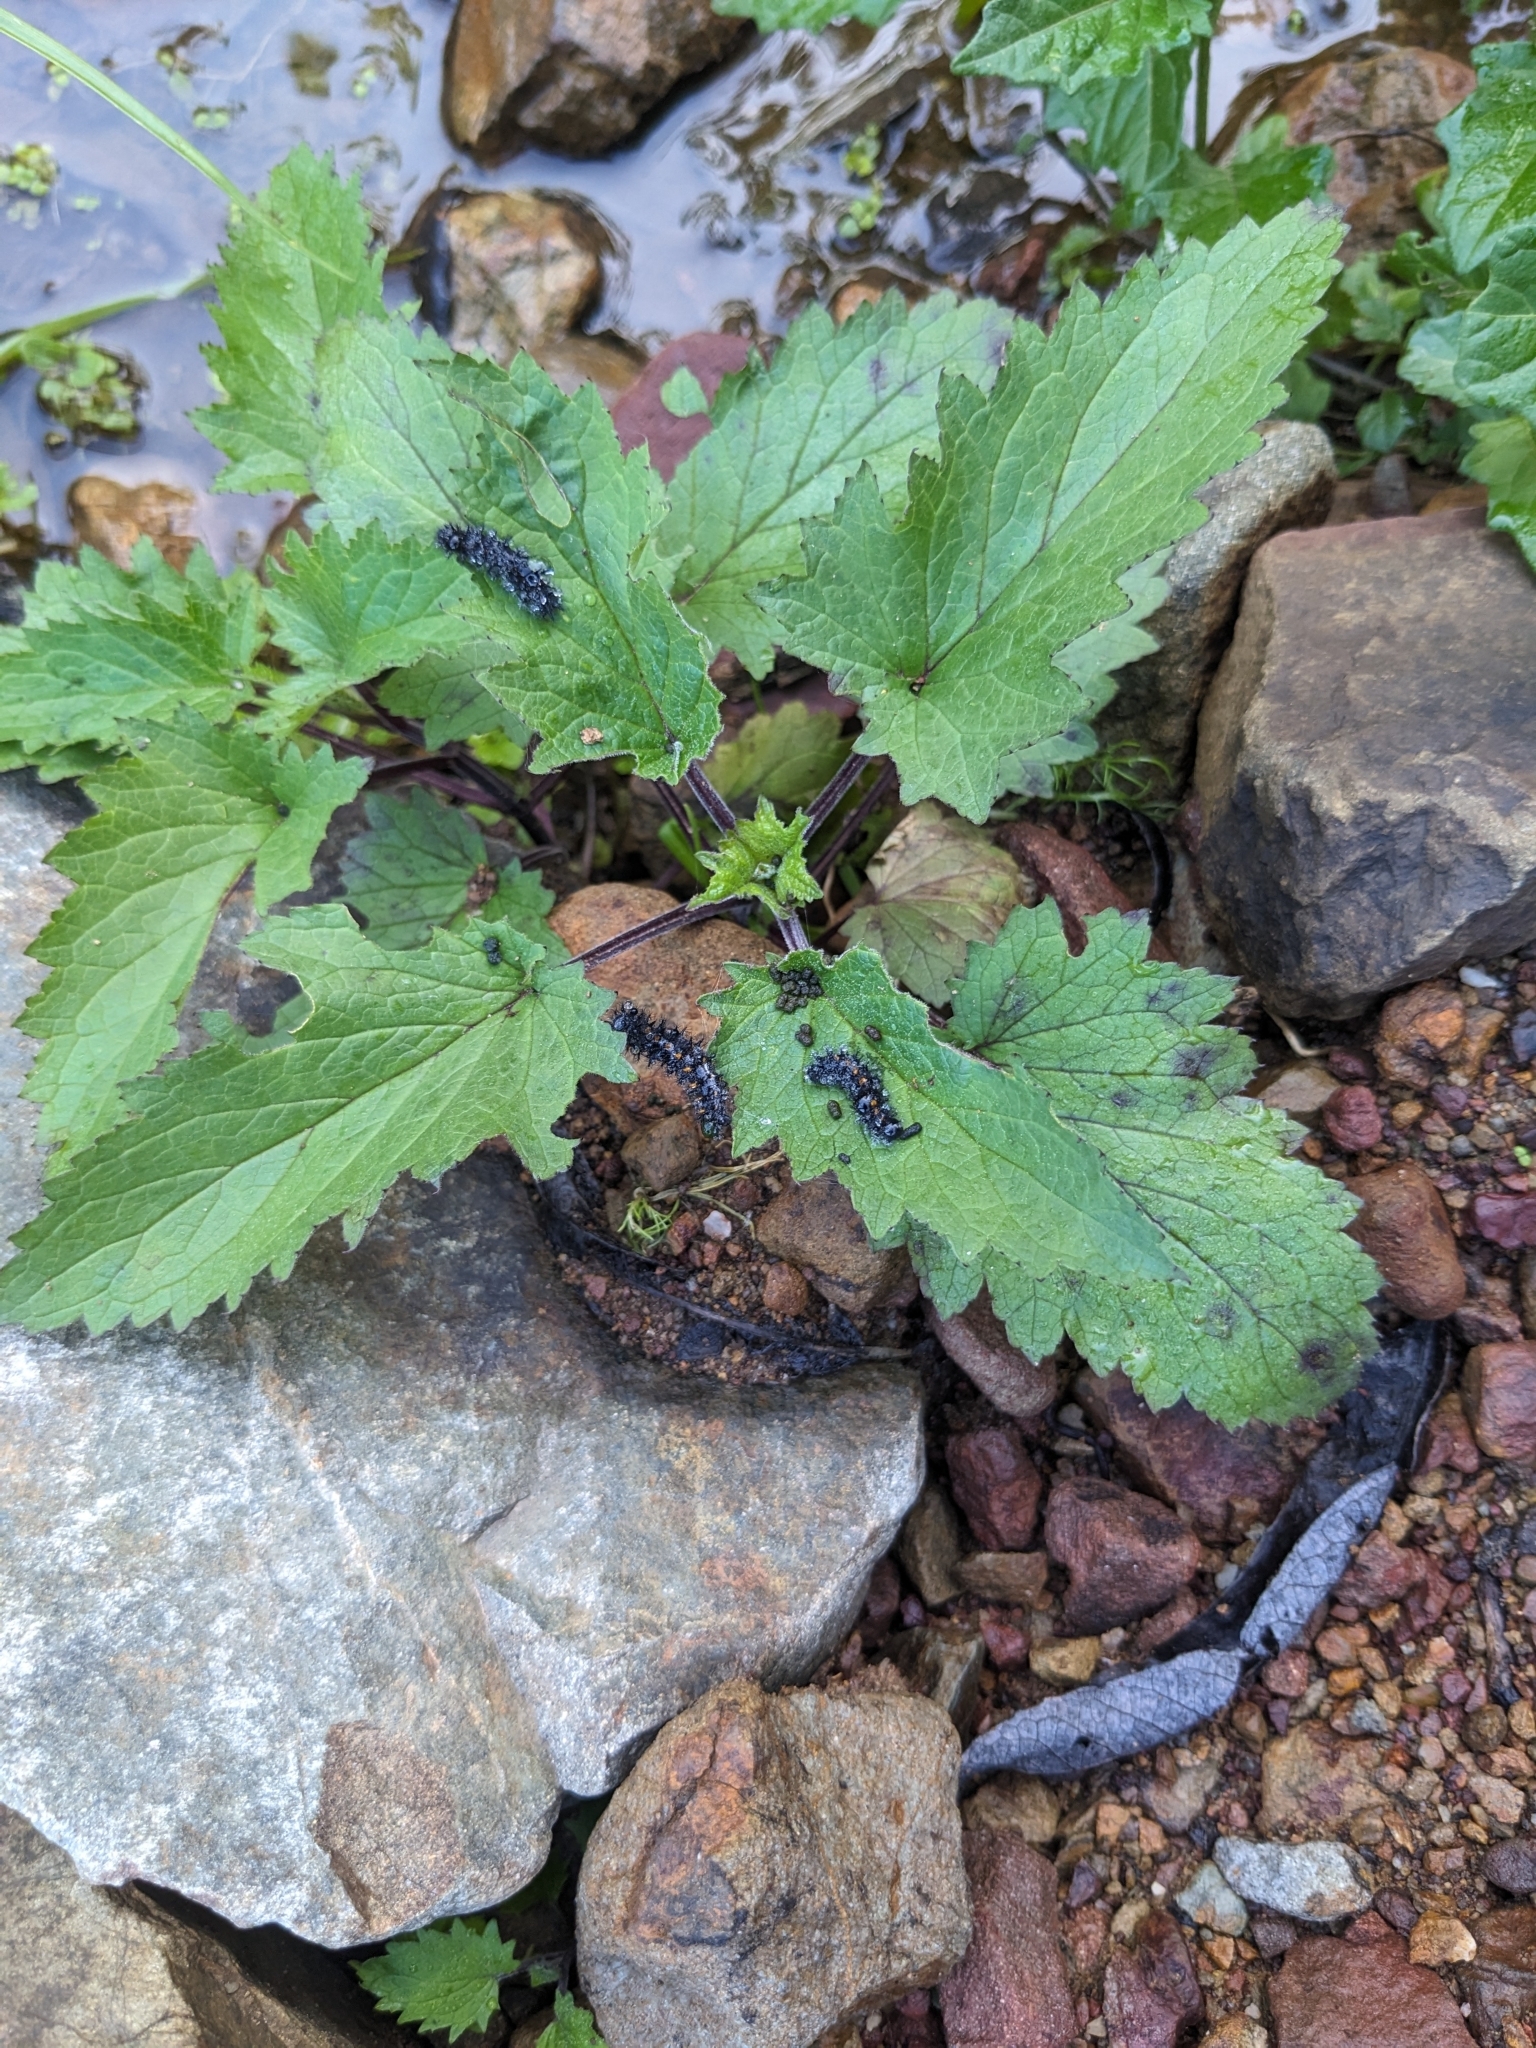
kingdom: Plantae
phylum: Tracheophyta
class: Magnoliopsida
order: Lamiales
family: Scrophulariaceae
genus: Scrophularia
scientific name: Scrophularia californica
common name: California figwort
